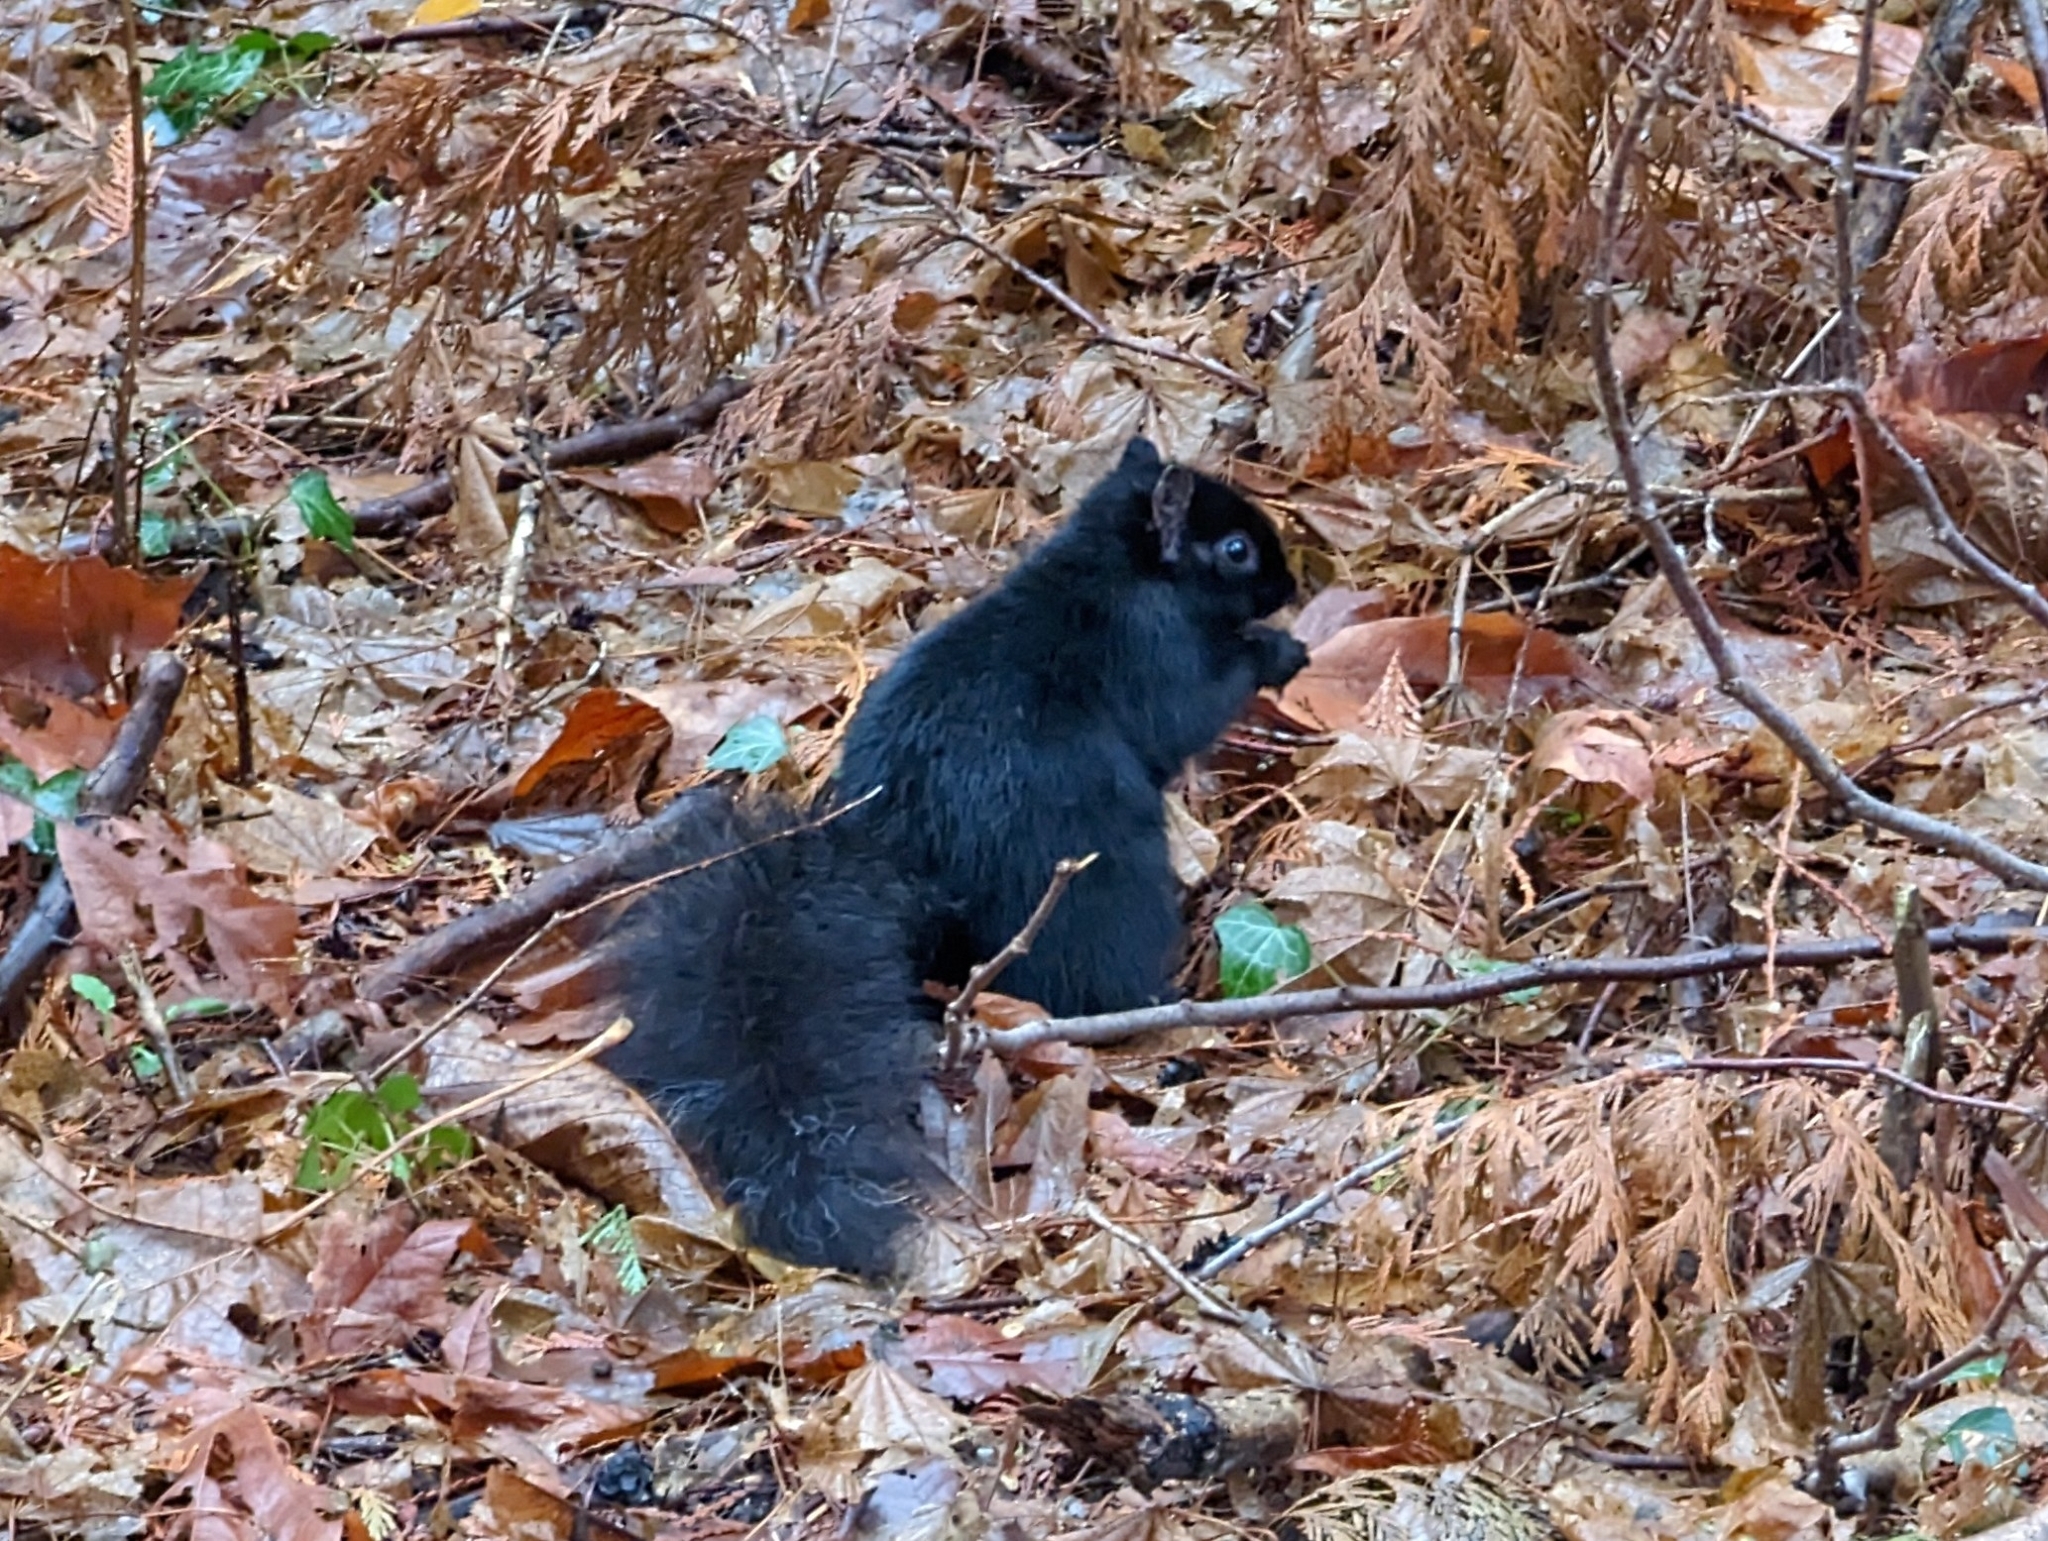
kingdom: Animalia
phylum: Chordata
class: Mammalia
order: Rodentia
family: Sciuridae
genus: Sciurus
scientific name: Sciurus carolinensis
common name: Eastern gray squirrel
